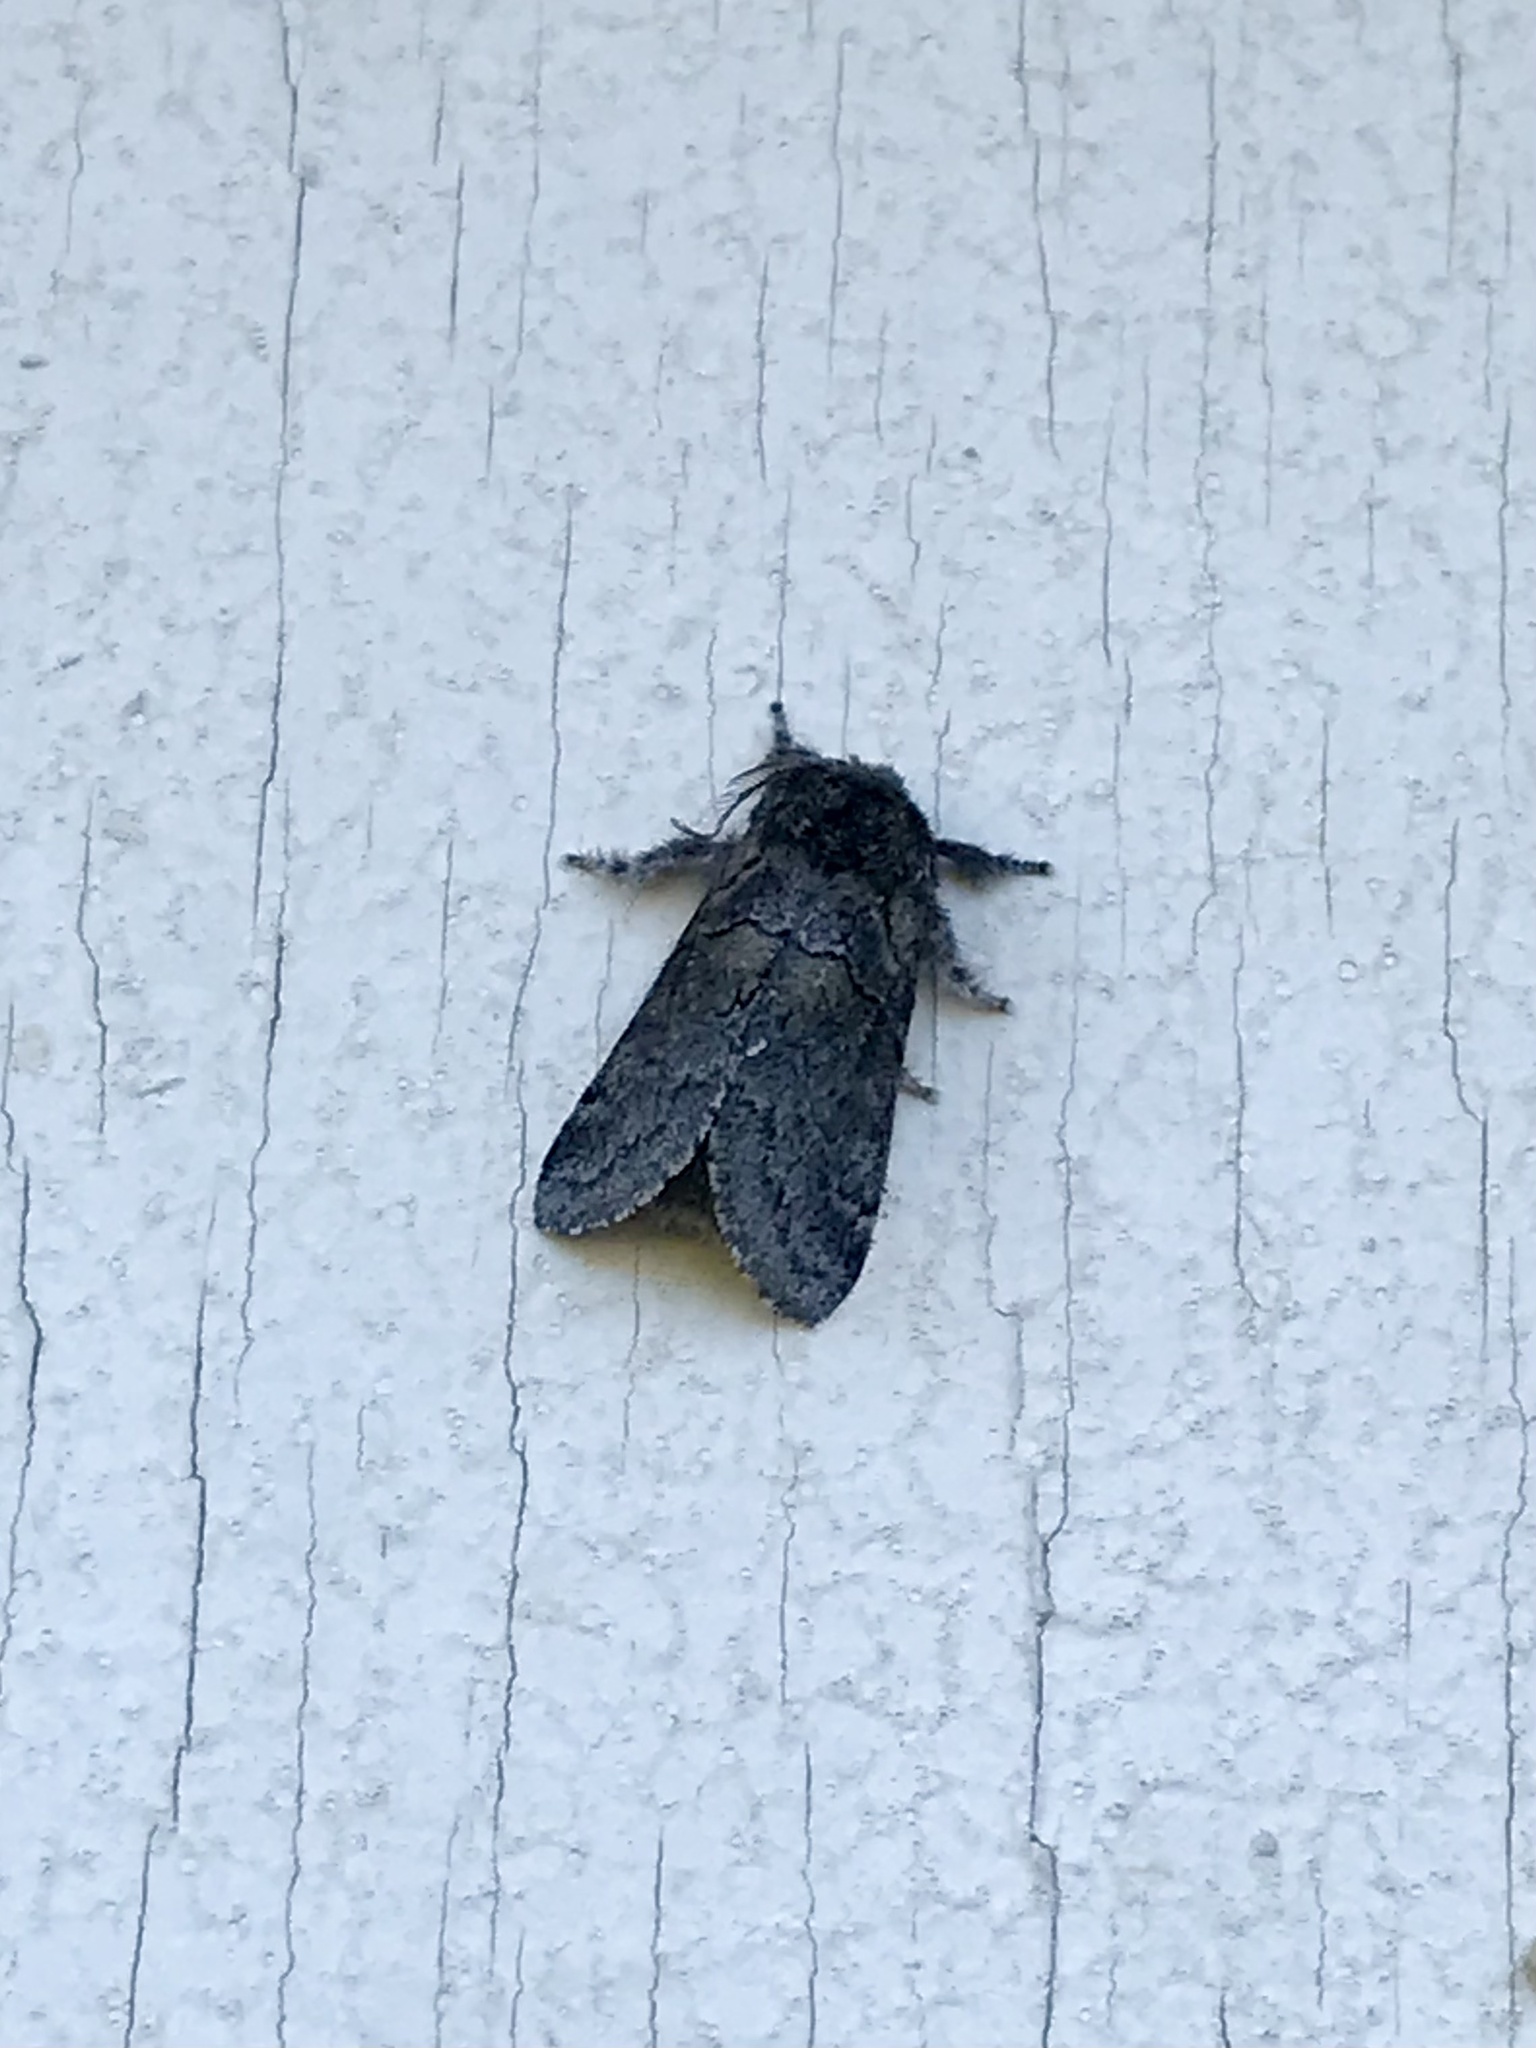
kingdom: Animalia
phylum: Arthropoda
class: Insecta
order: Lepidoptera
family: Notodontidae
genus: Gluphisia
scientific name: Gluphisia septentrionis
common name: Common gluphisia
